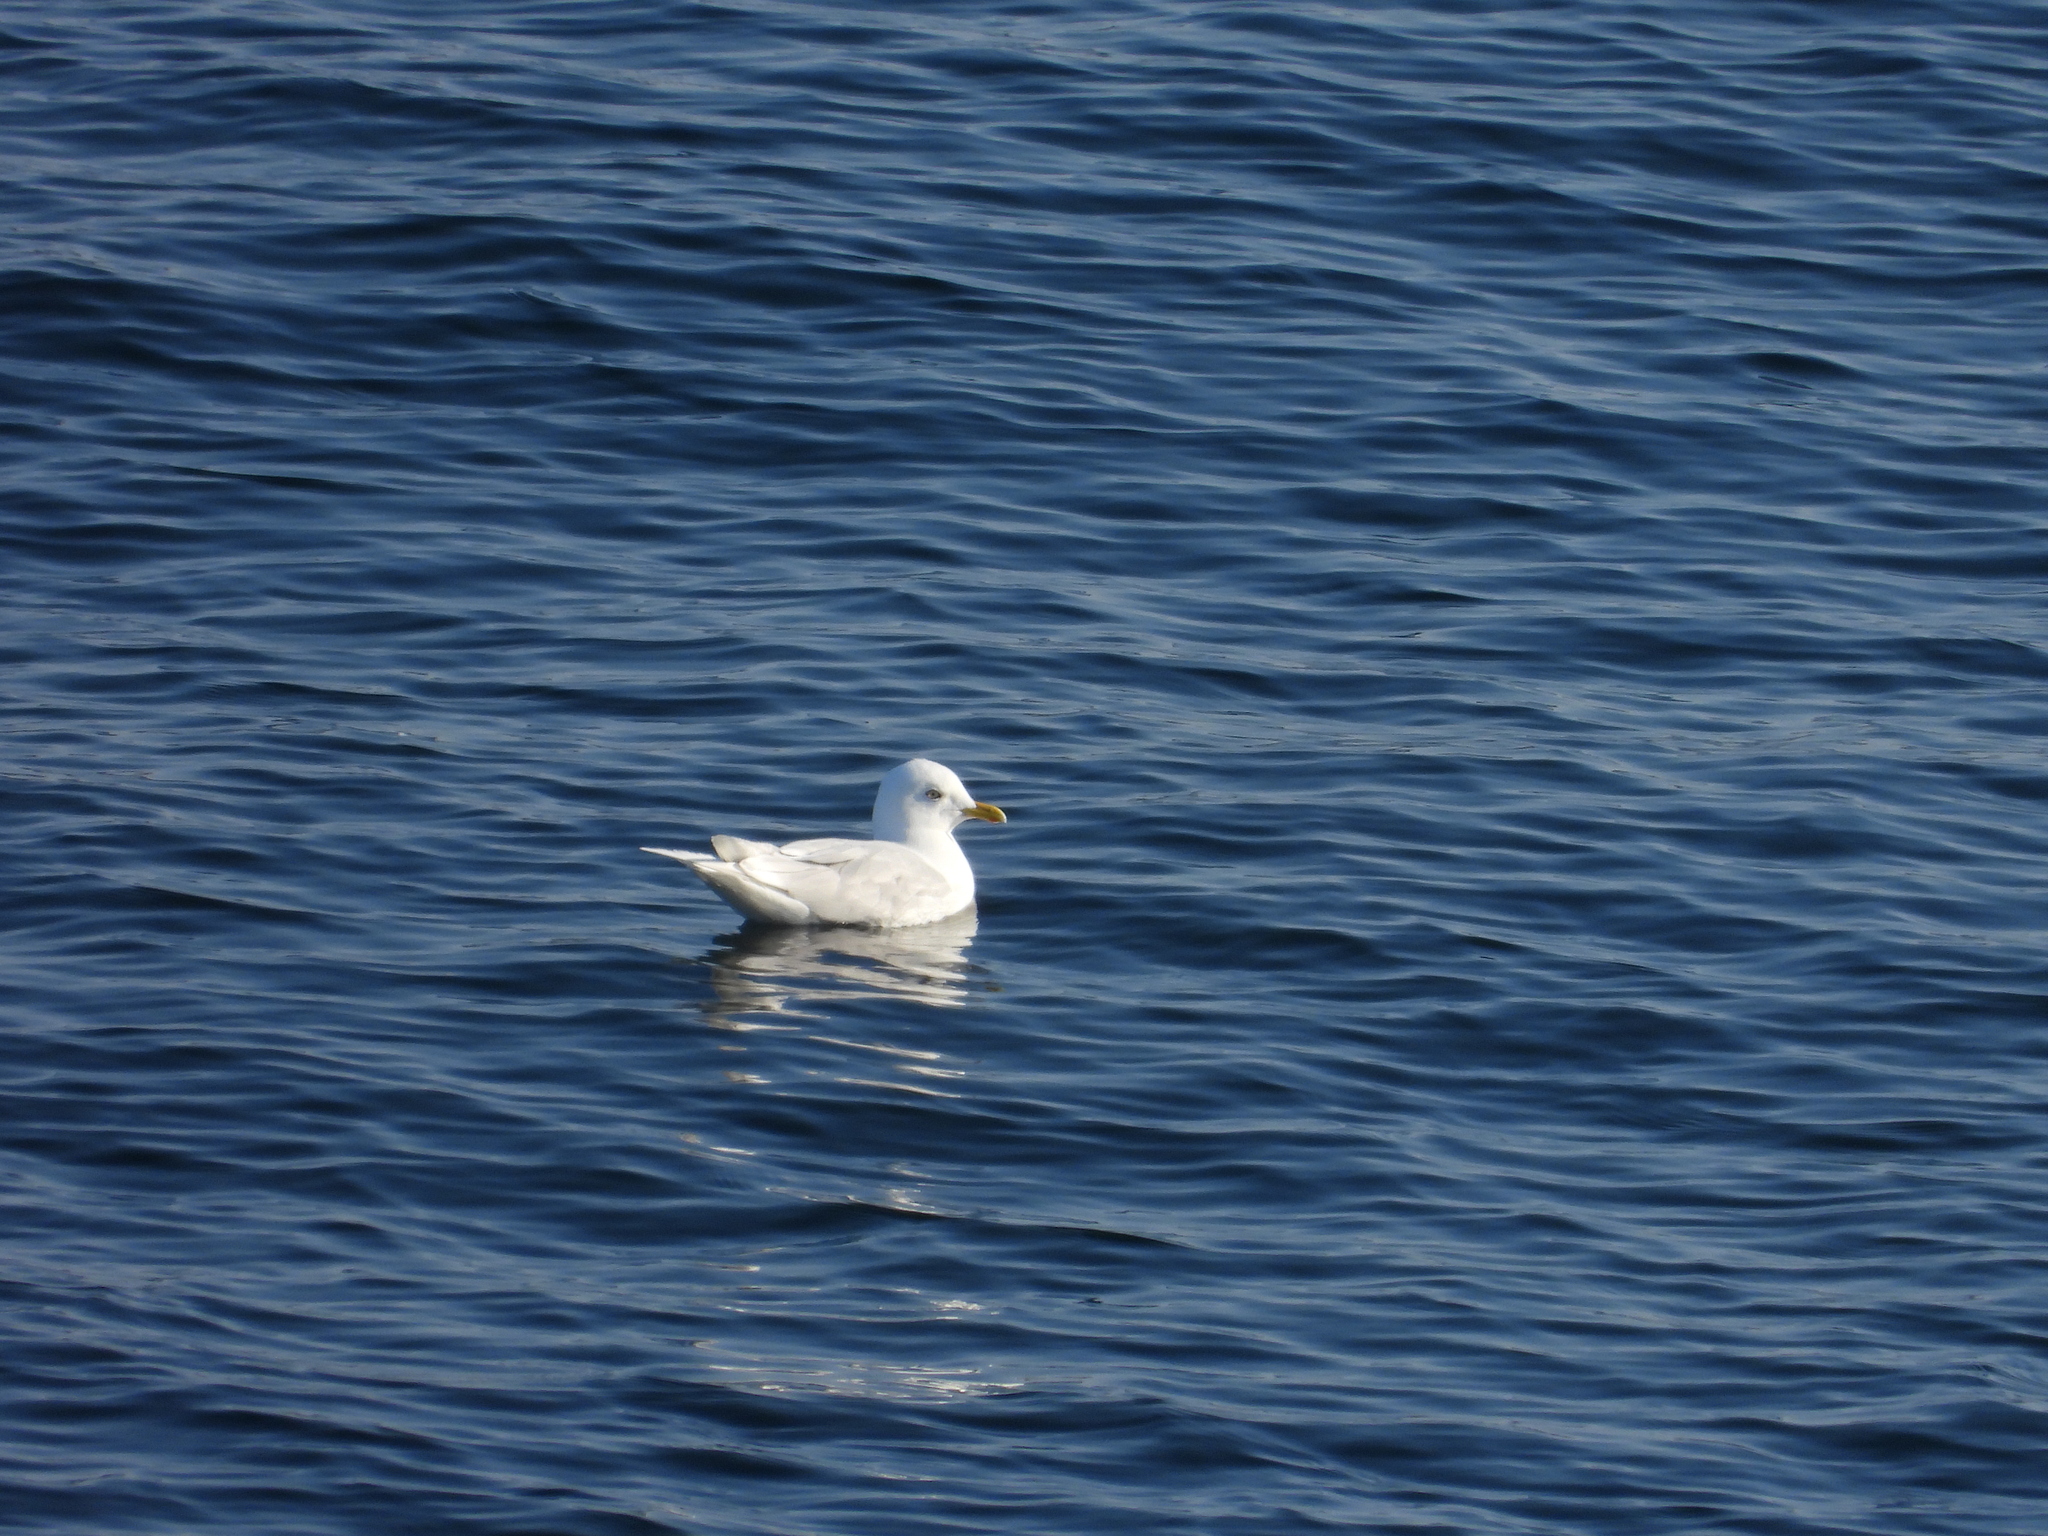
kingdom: Animalia
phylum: Chordata
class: Aves
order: Charadriiformes
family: Laridae
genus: Larus
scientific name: Larus glaucoides
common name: Iceland gull
